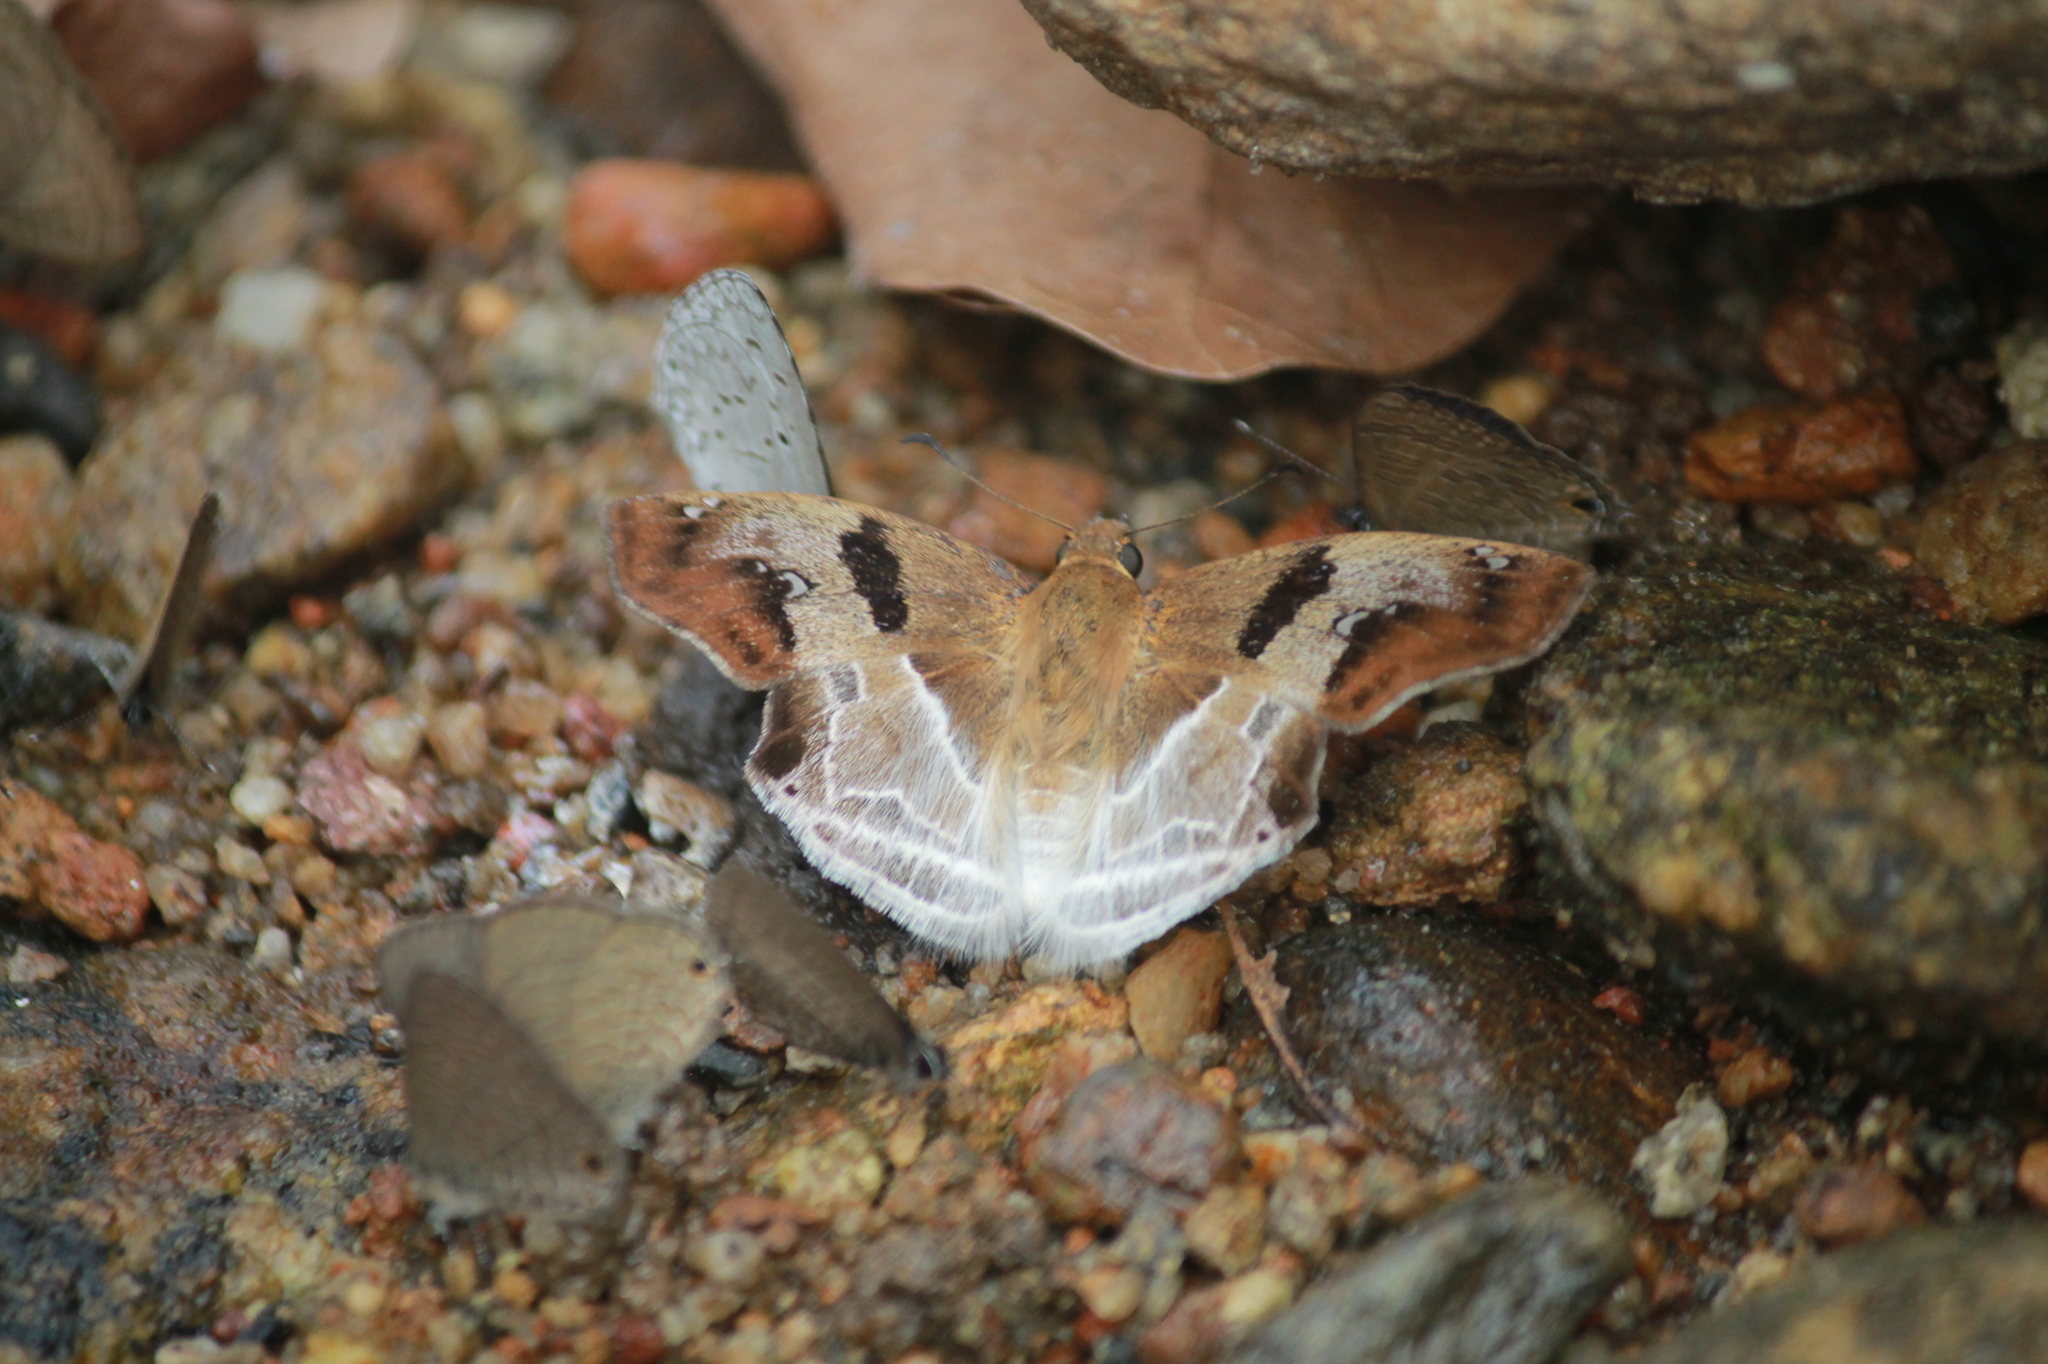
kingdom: Animalia
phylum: Arthropoda
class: Insecta
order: Lepidoptera
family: Hesperiidae
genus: Odontoptilum
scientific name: Odontoptilum angulata
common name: Chestnut banded angle
